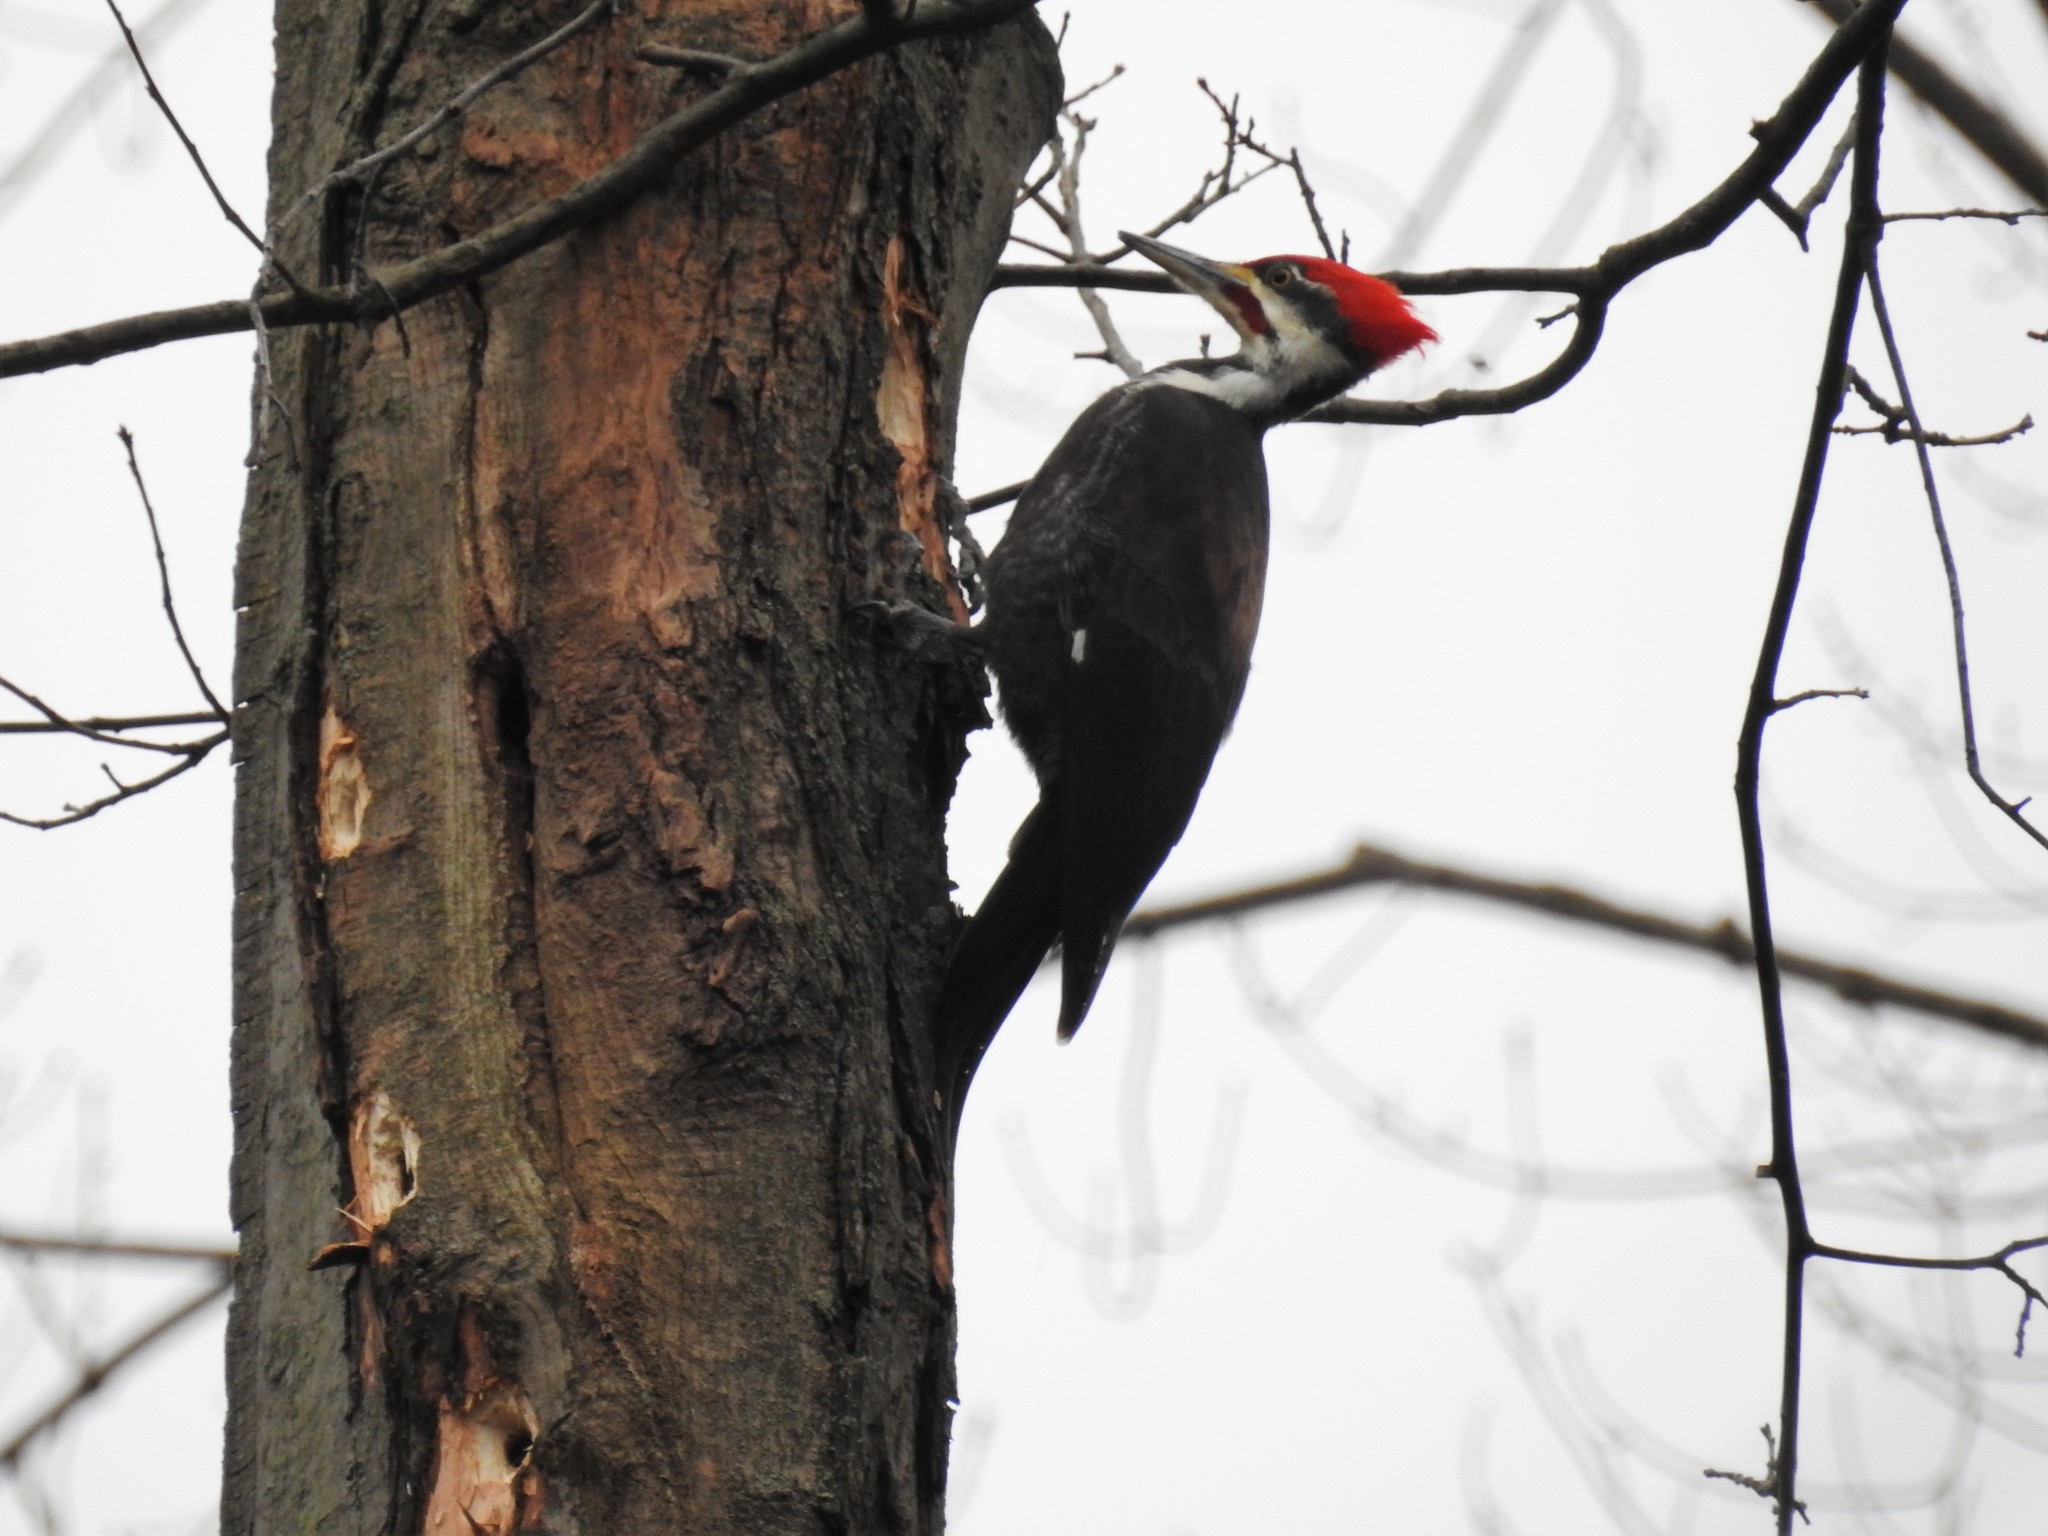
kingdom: Animalia
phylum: Chordata
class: Aves
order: Piciformes
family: Picidae
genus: Dryocopus
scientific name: Dryocopus pileatus
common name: Pileated woodpecker
